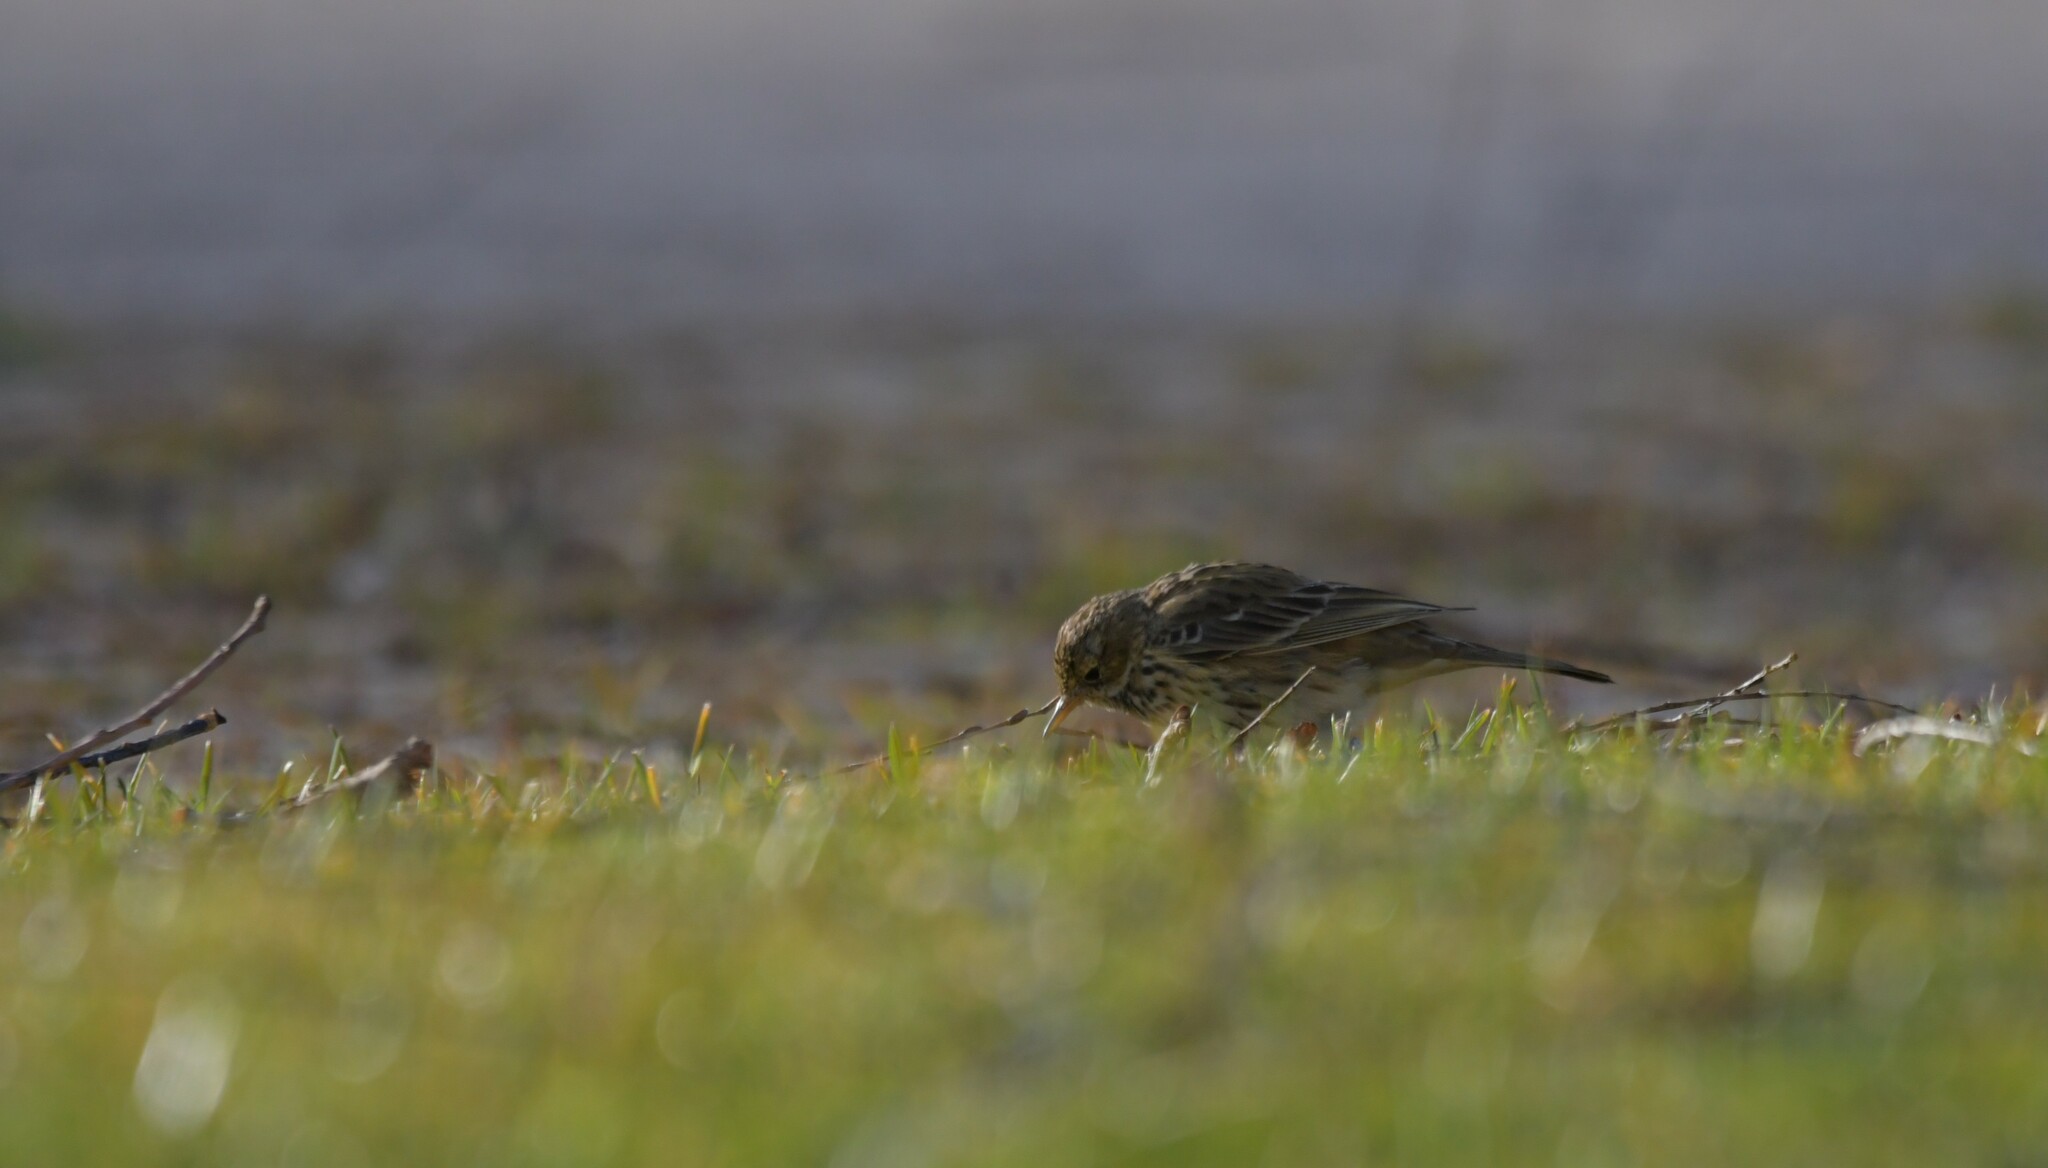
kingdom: Animalia
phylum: Chordata
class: Aves
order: Passeriformes
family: Motacillidae
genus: Anthus
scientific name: Anthus pratensis
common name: Meadow pipit
